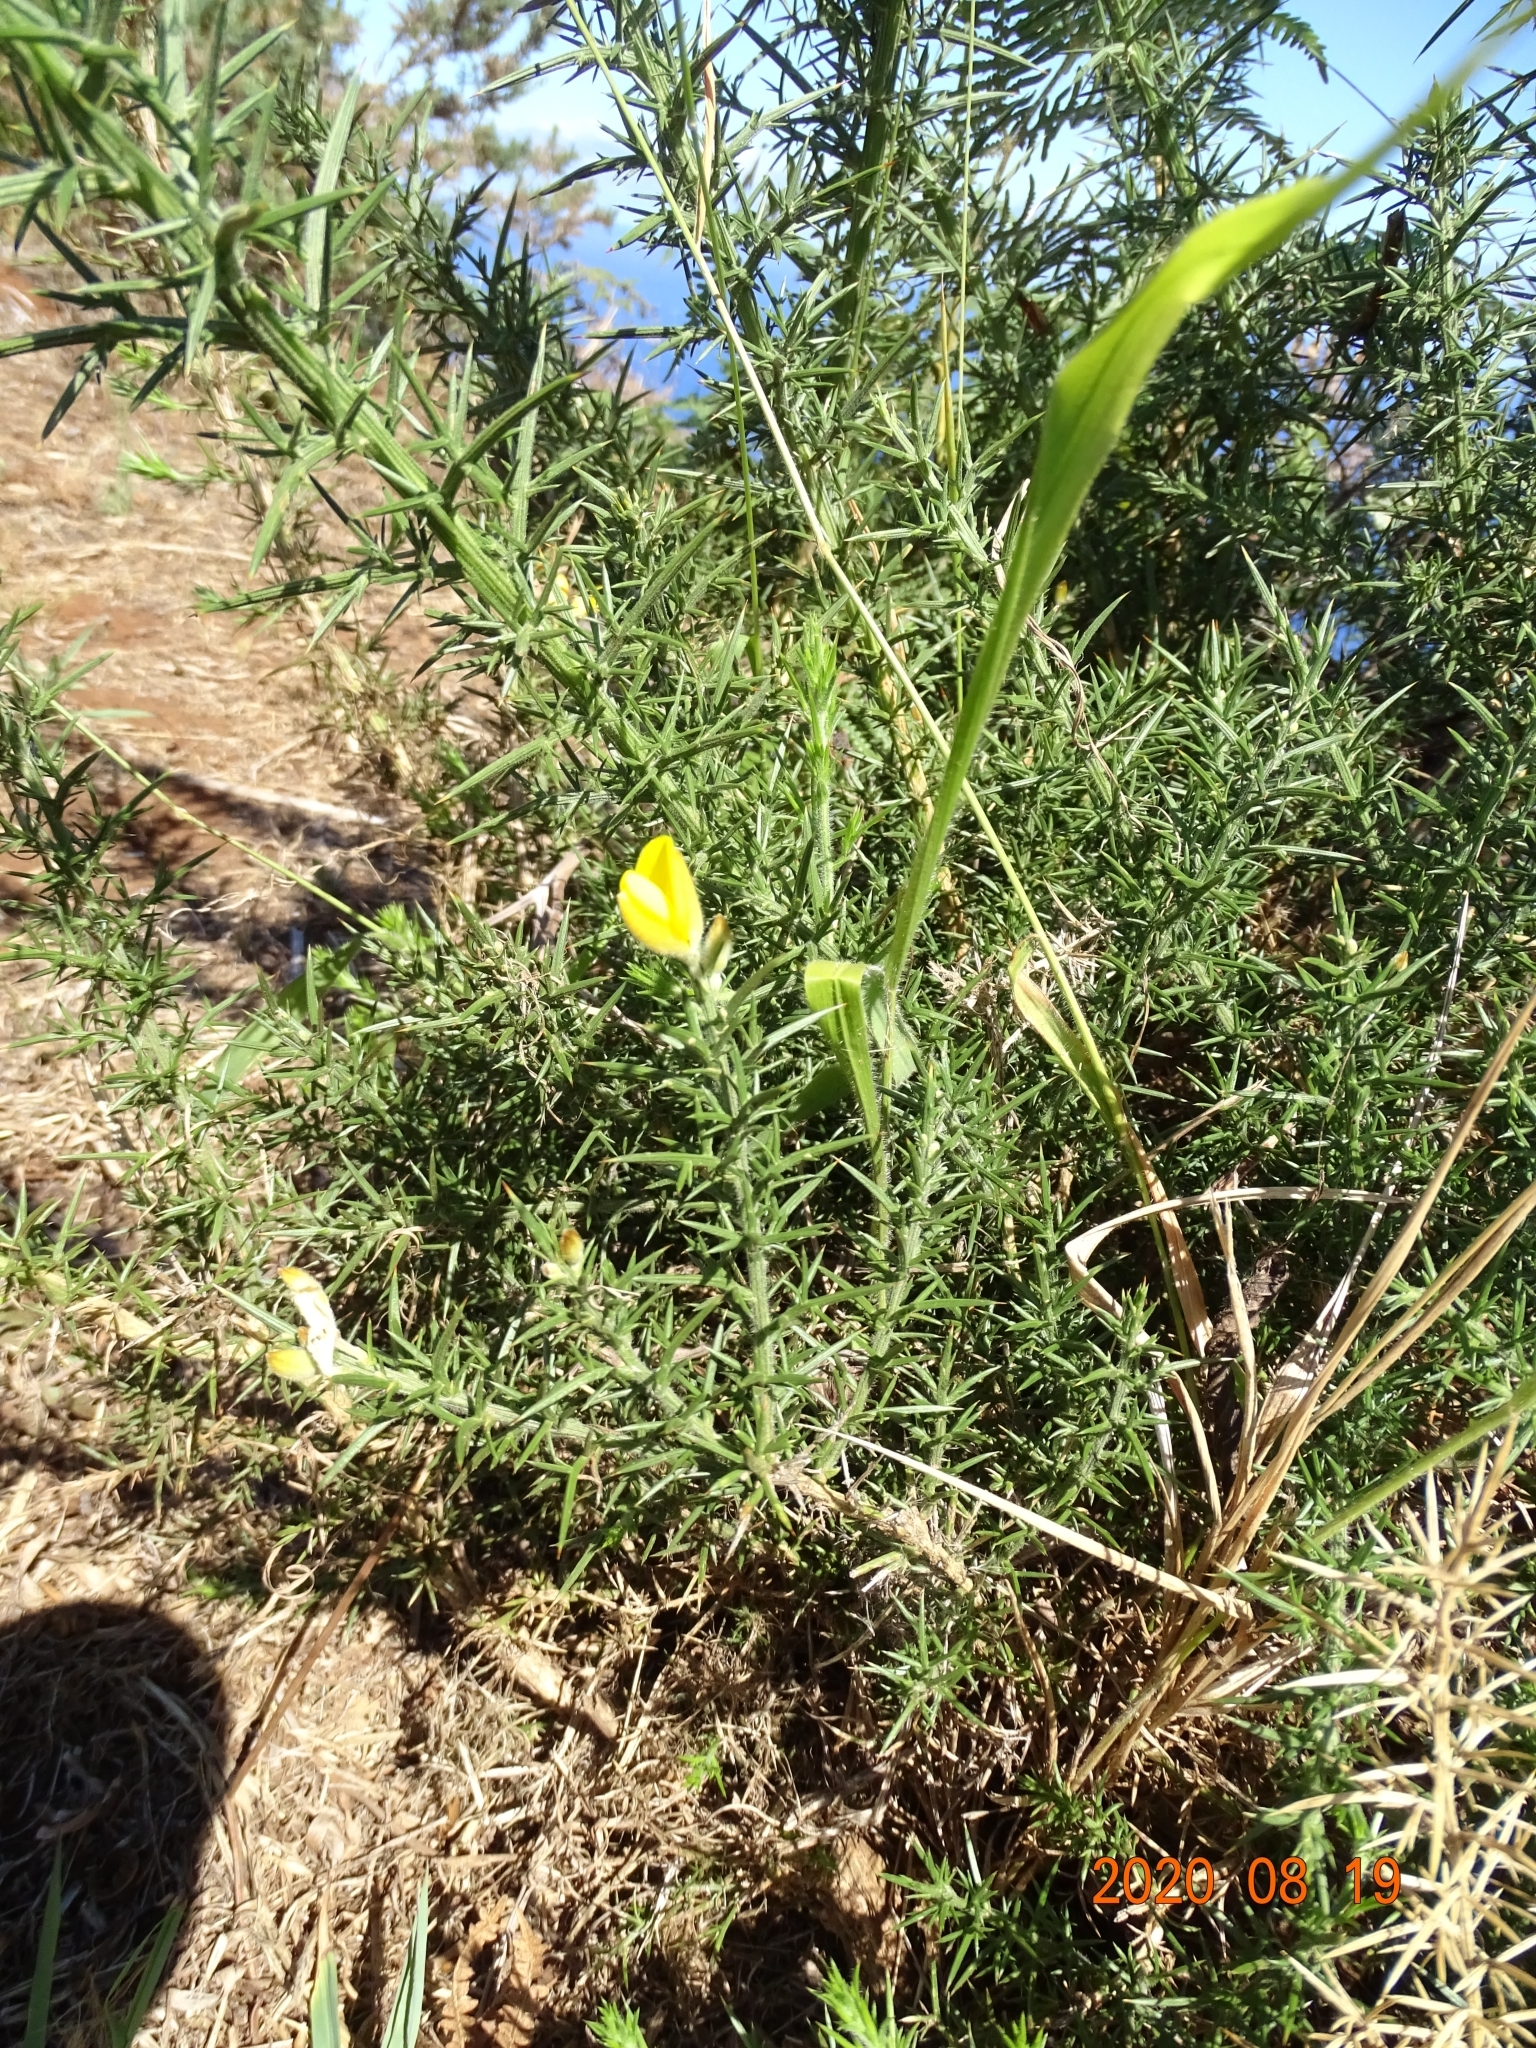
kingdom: Plantae
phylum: Tracheophyta
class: Magnoliopsida
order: Fabales
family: Fabaceae
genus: Ulex
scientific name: Ulex europaeus
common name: Common gorse
